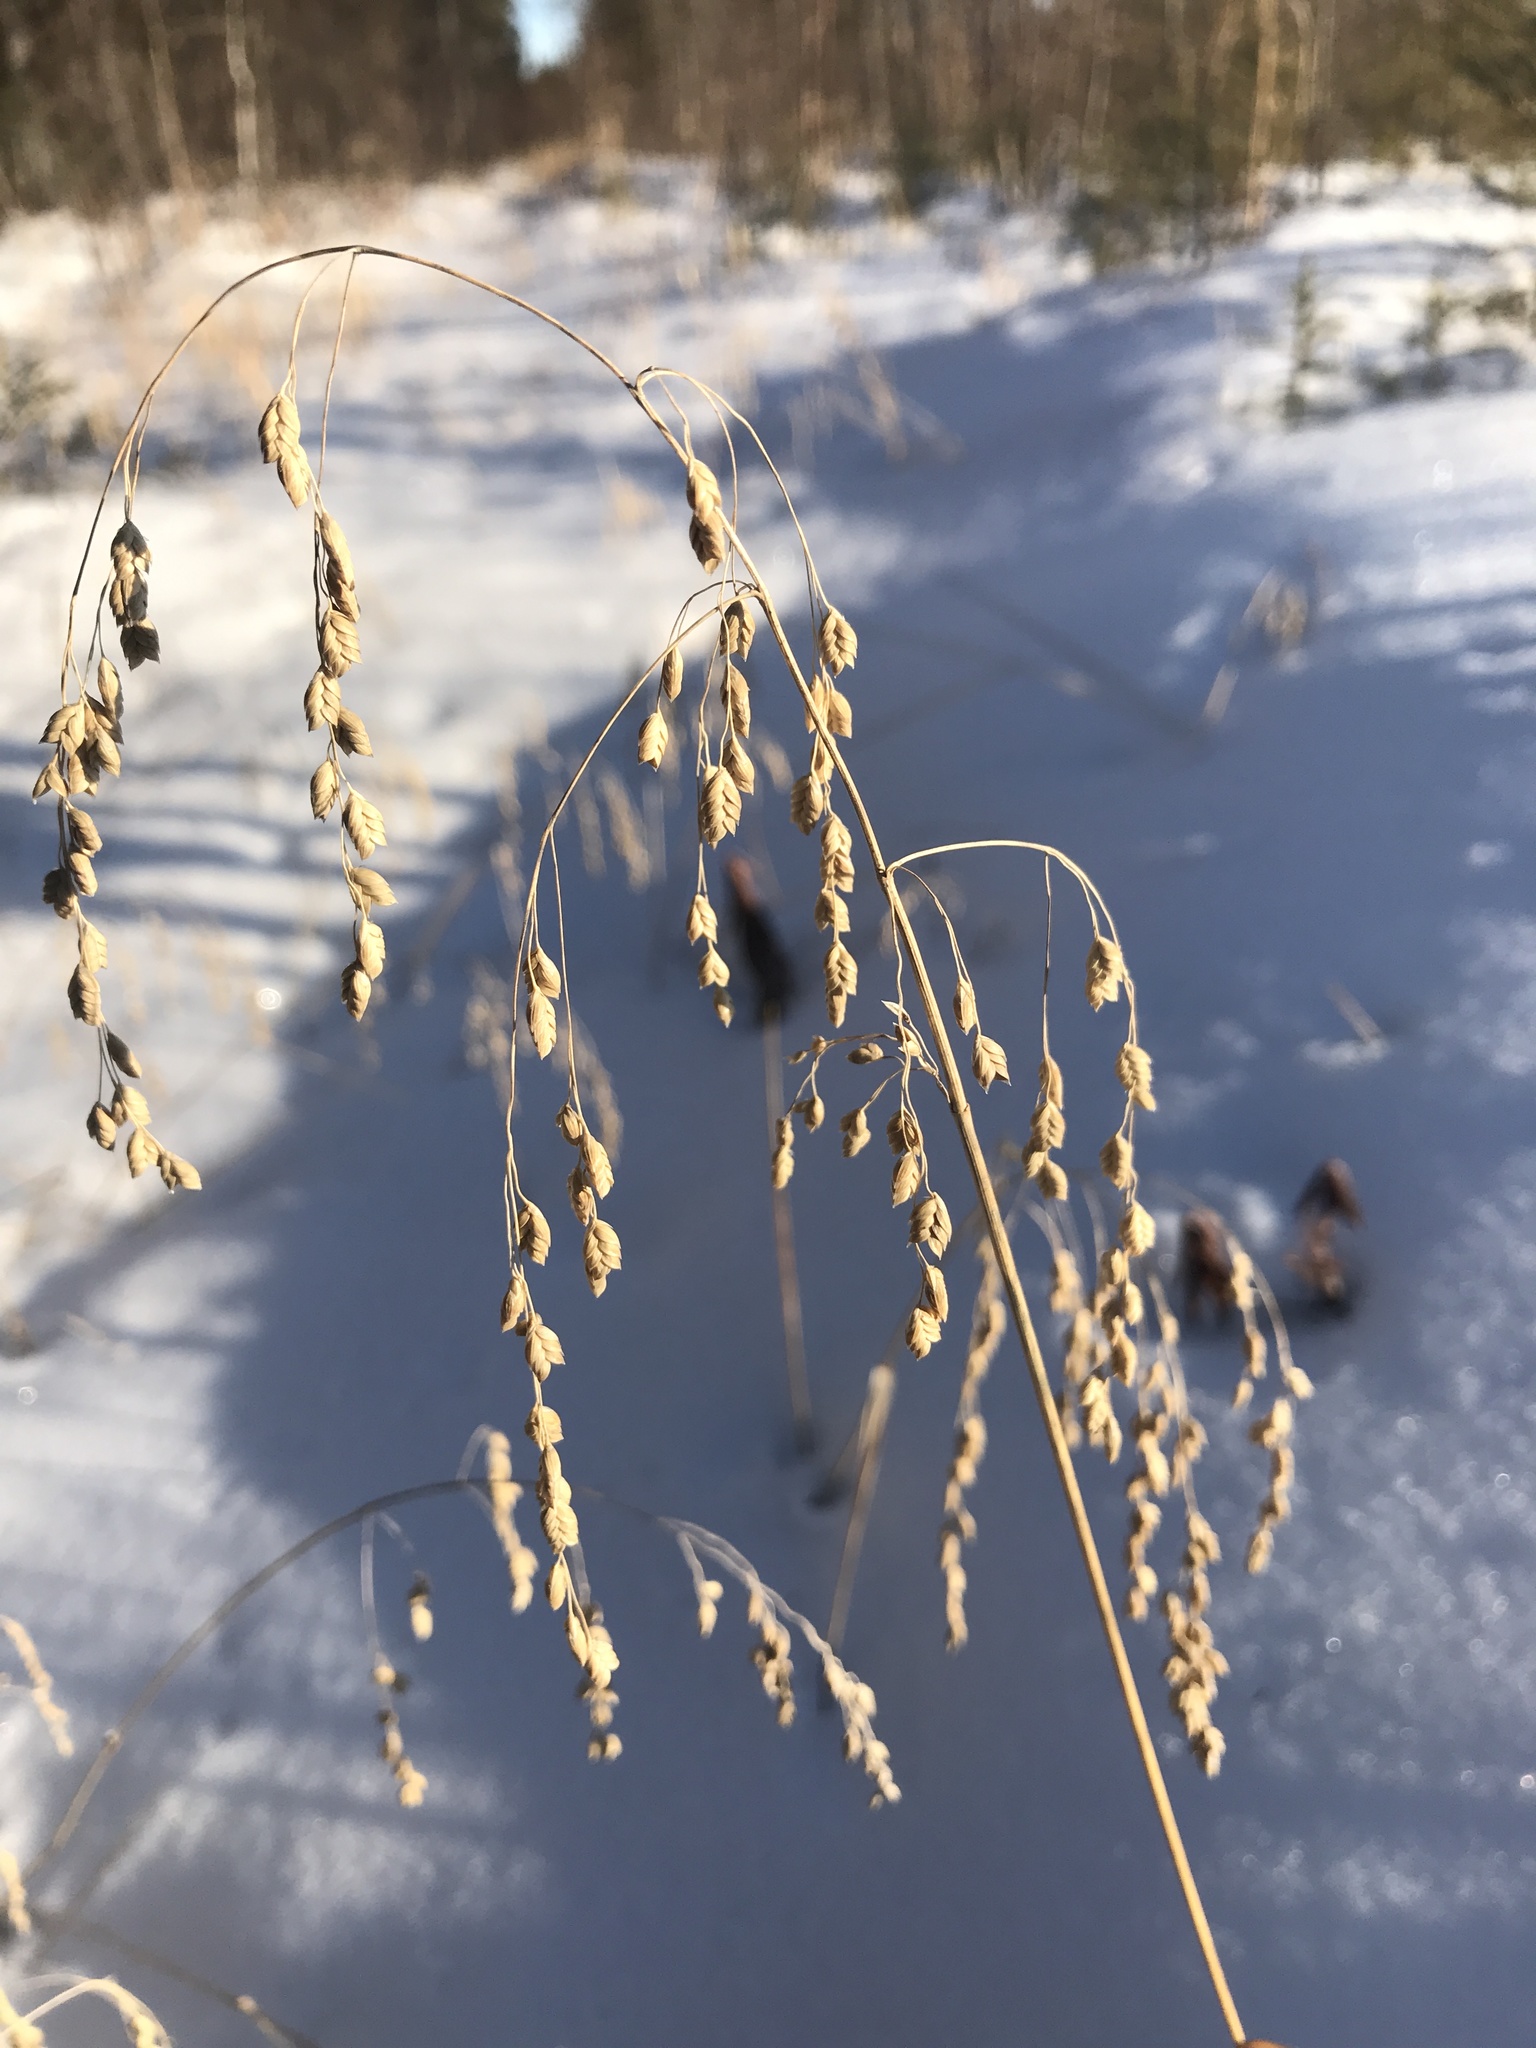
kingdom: Plantae
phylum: Tracheophyta
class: Liliopsida
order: Poales
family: Poaceae
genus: Glyceria
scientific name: Glyceria canadensis
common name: Canada mannagrass
